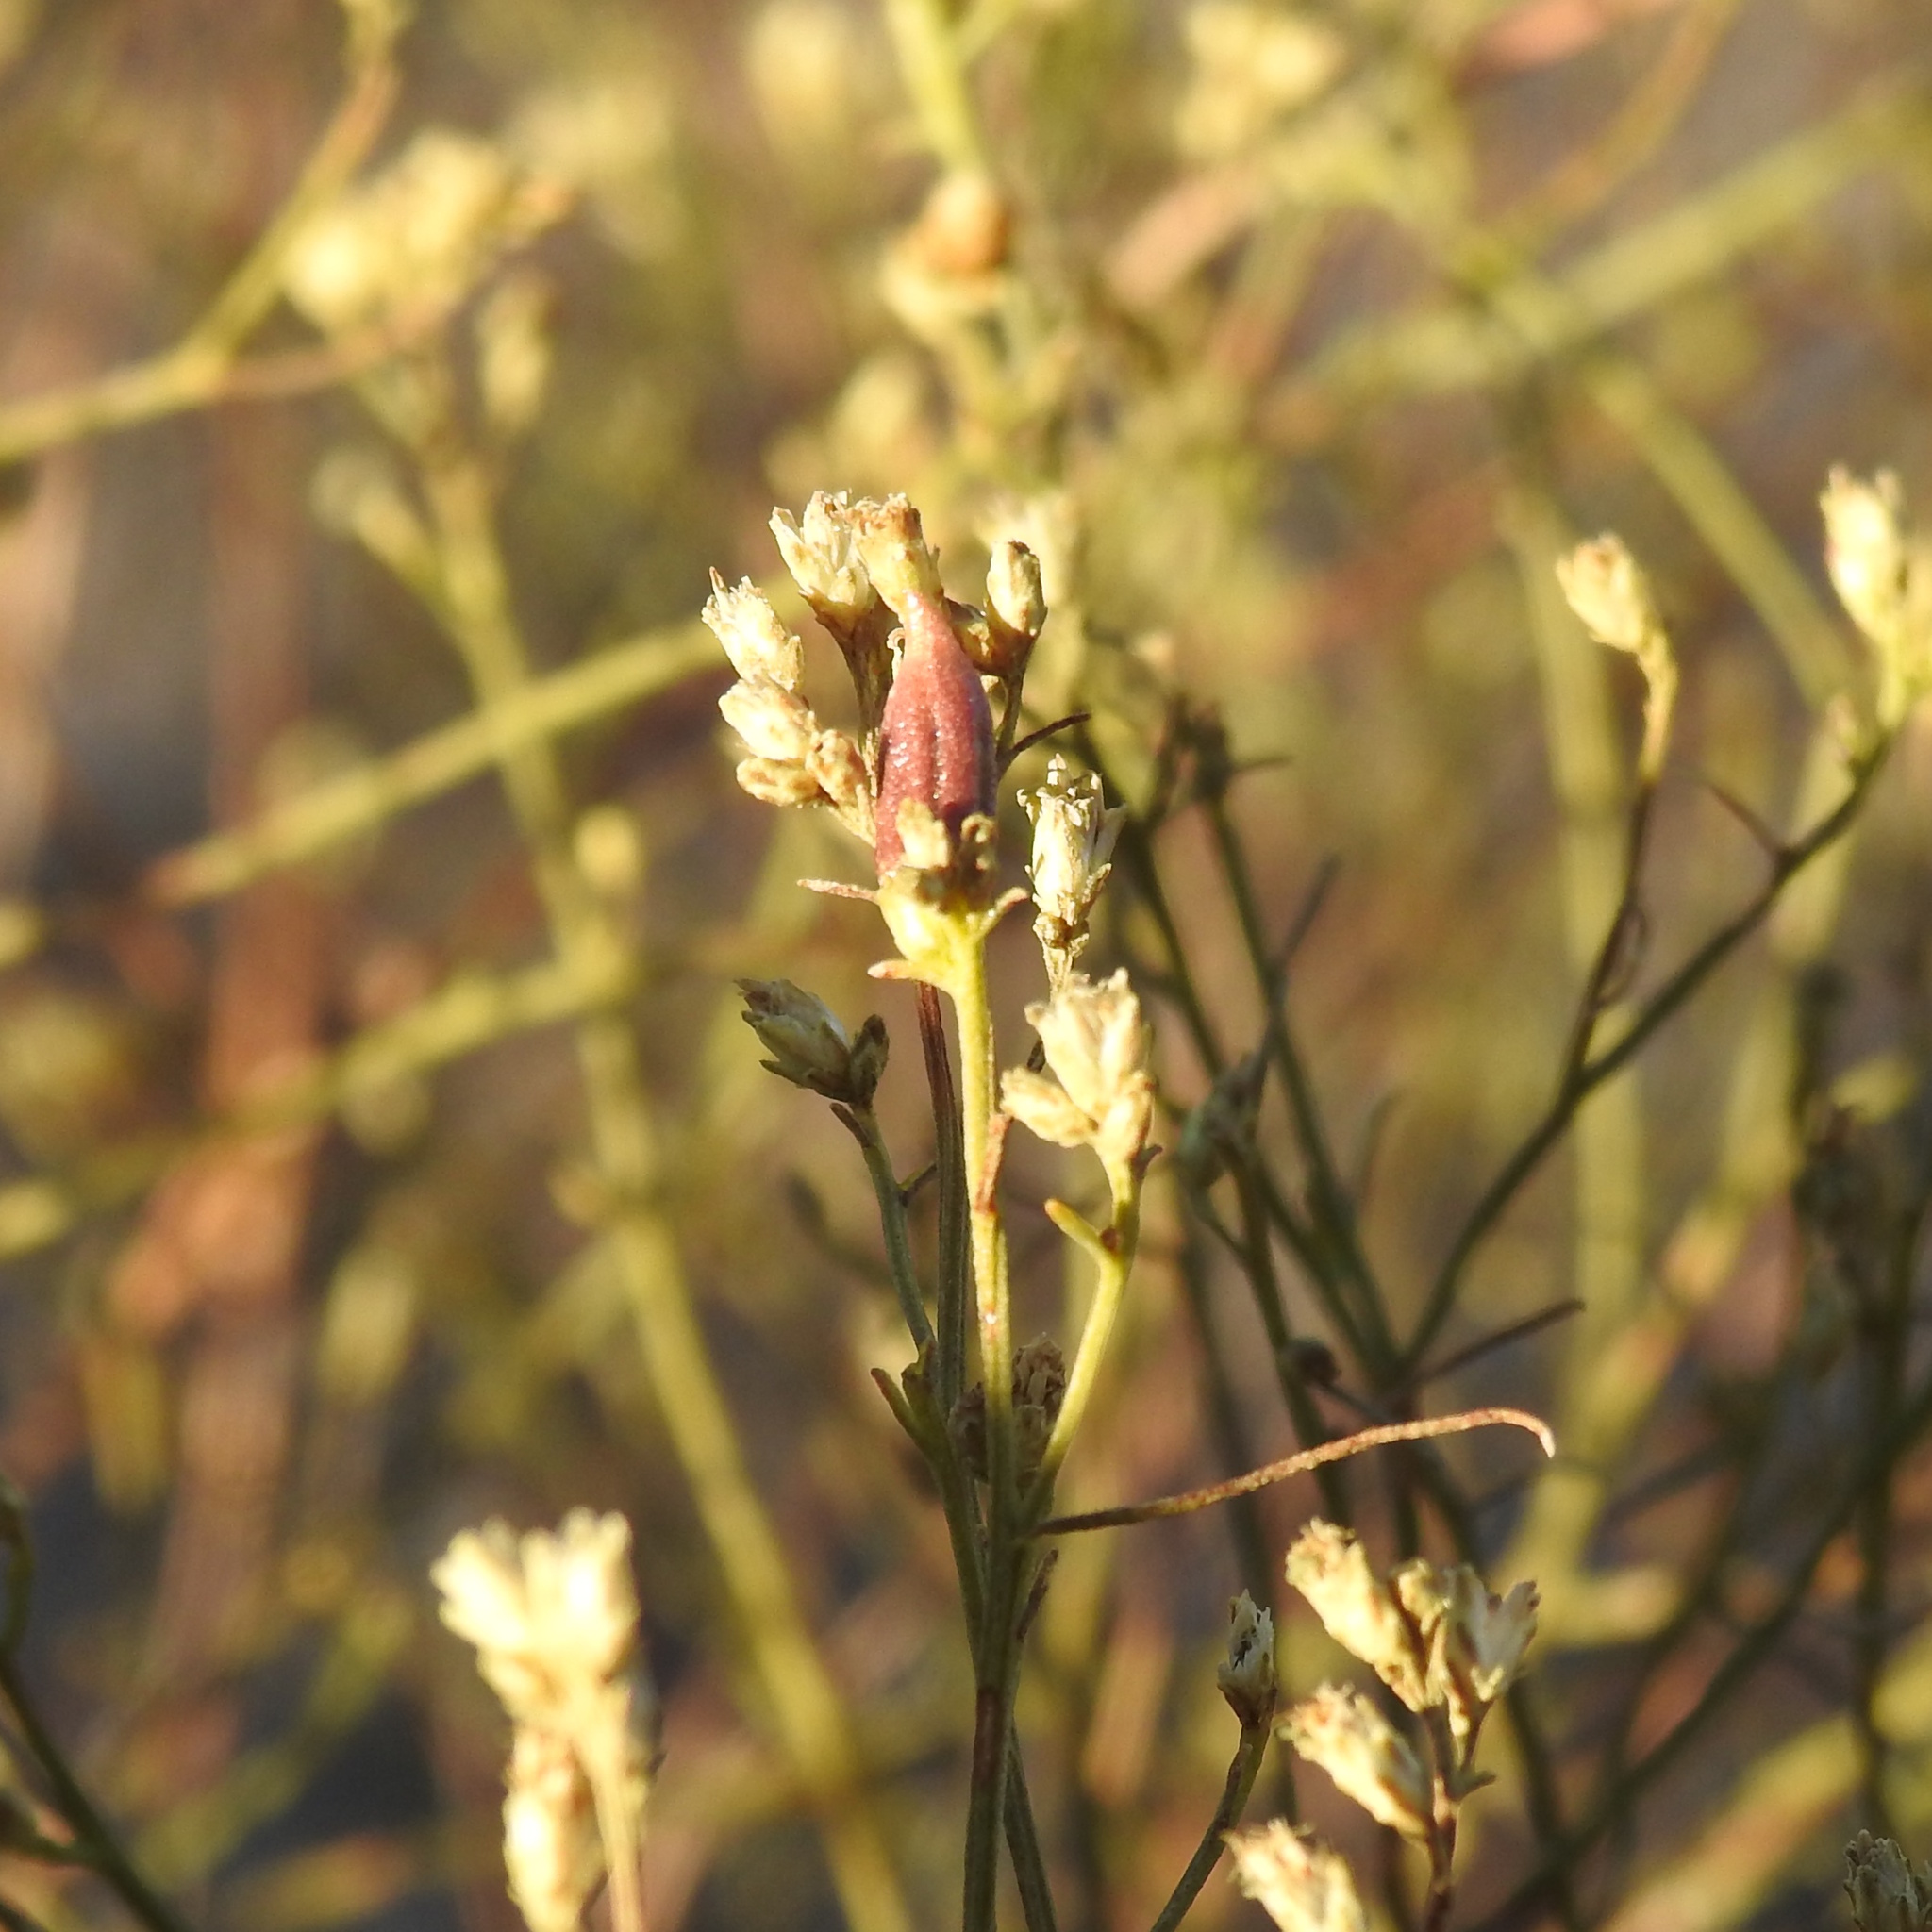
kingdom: Animalia
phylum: Arthropoda
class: Insecta
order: Diptera
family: Cecidomyiidae
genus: Rhopalomyia
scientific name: Rhopalomyia gutierreziae
